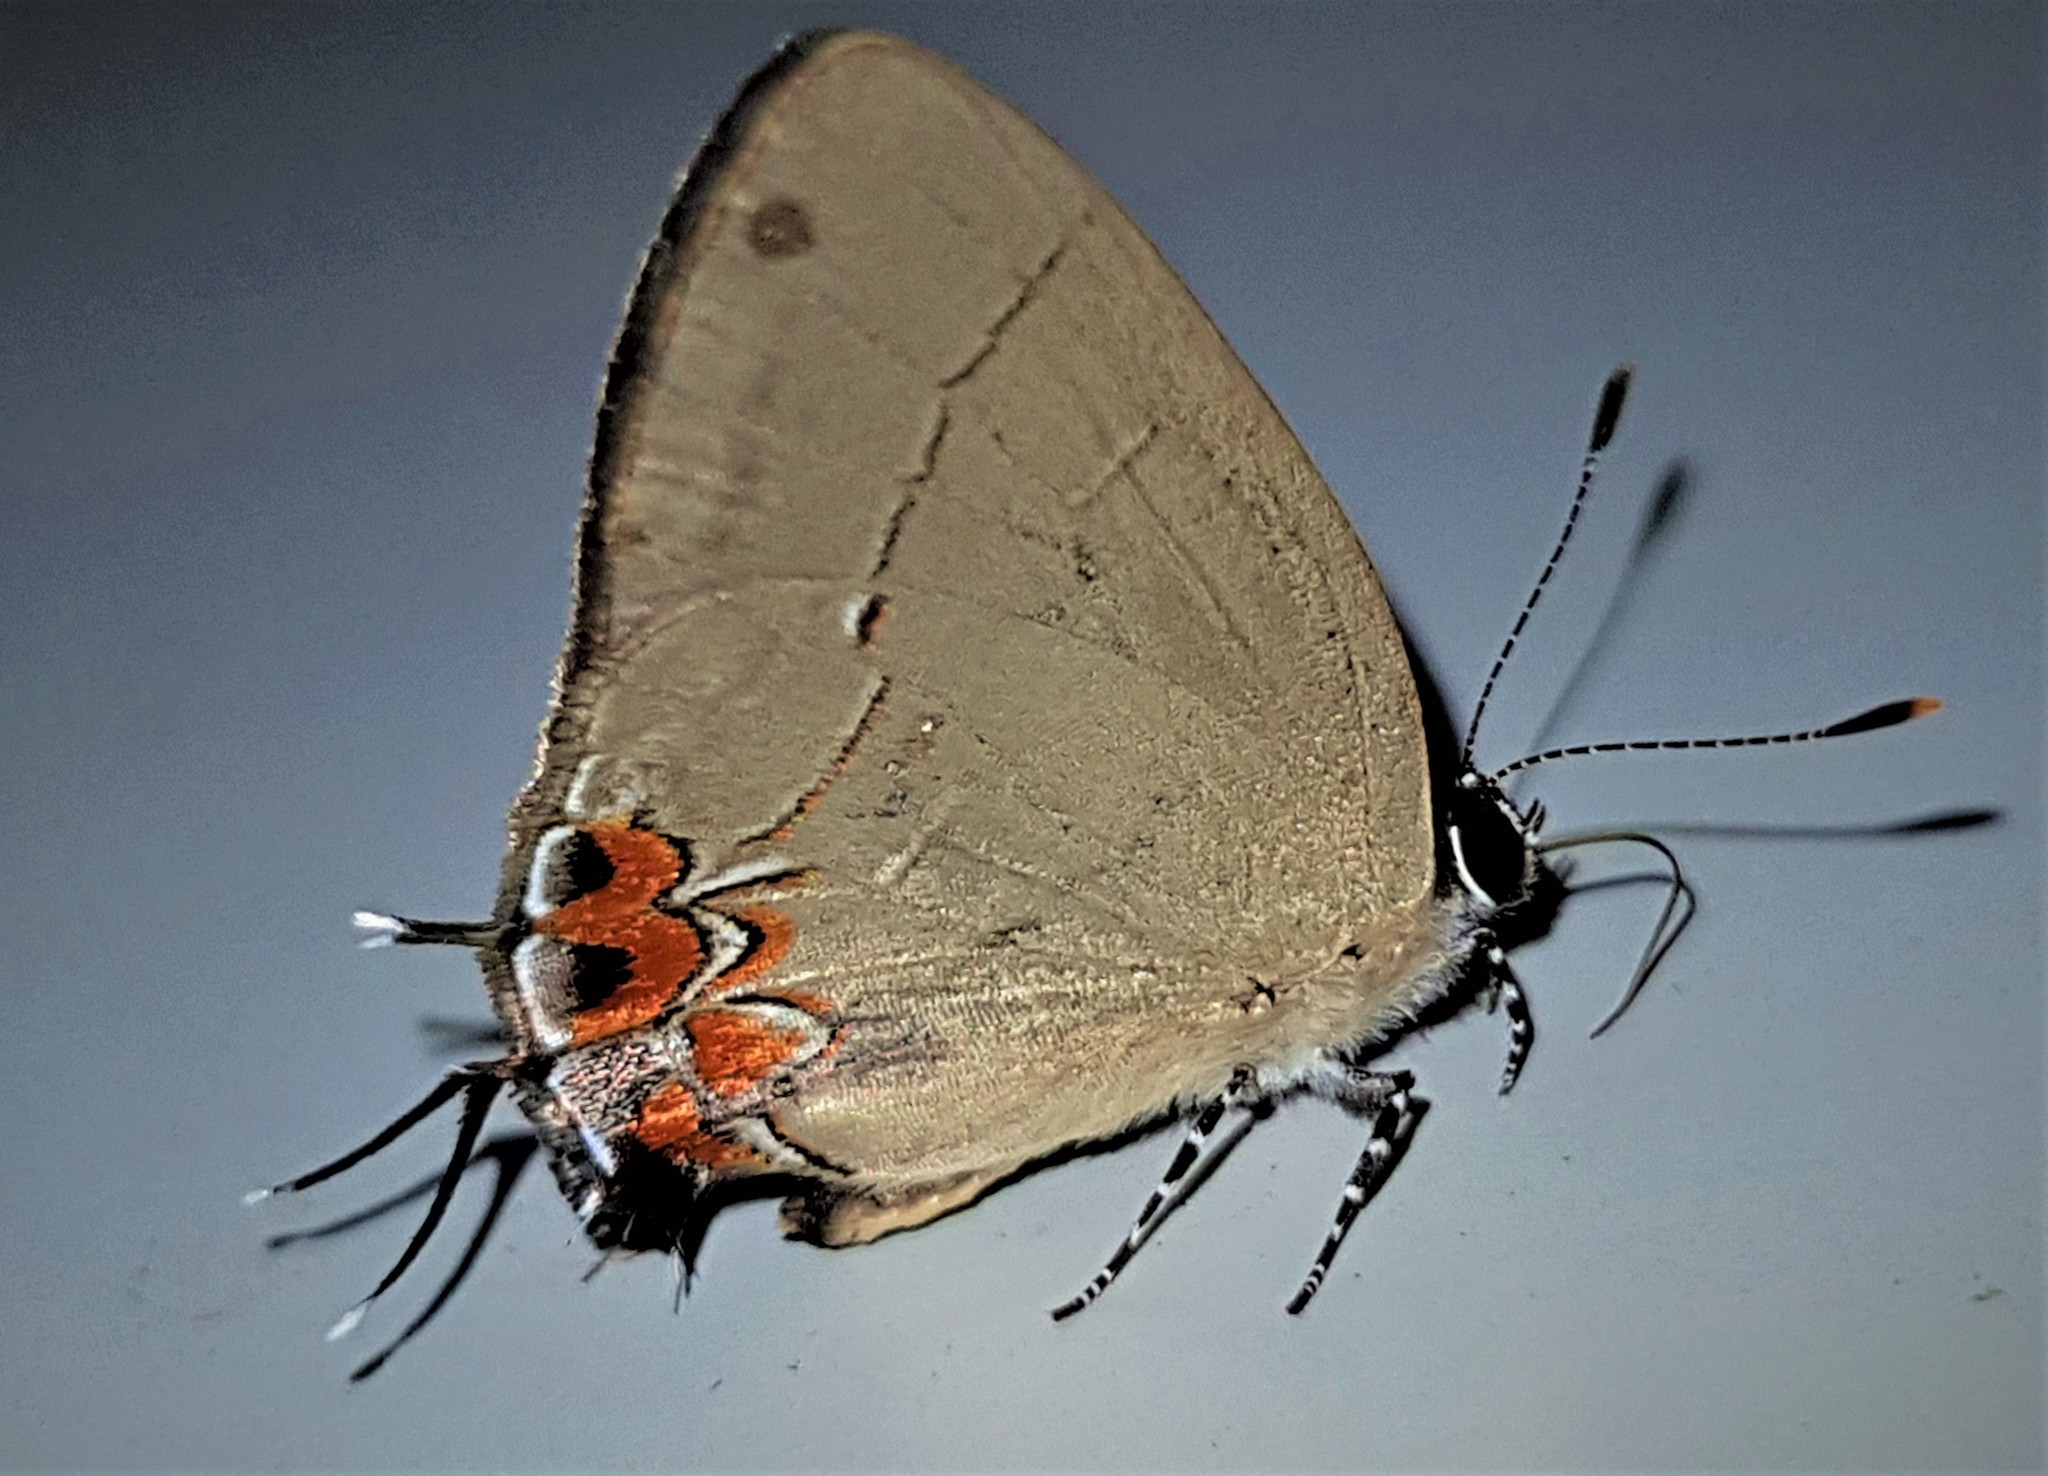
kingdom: Animalia
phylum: Arthropoda
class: Insecta
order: Lepidoptera
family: Lycaenidae
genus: Calycopis
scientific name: Calycopis pisis
